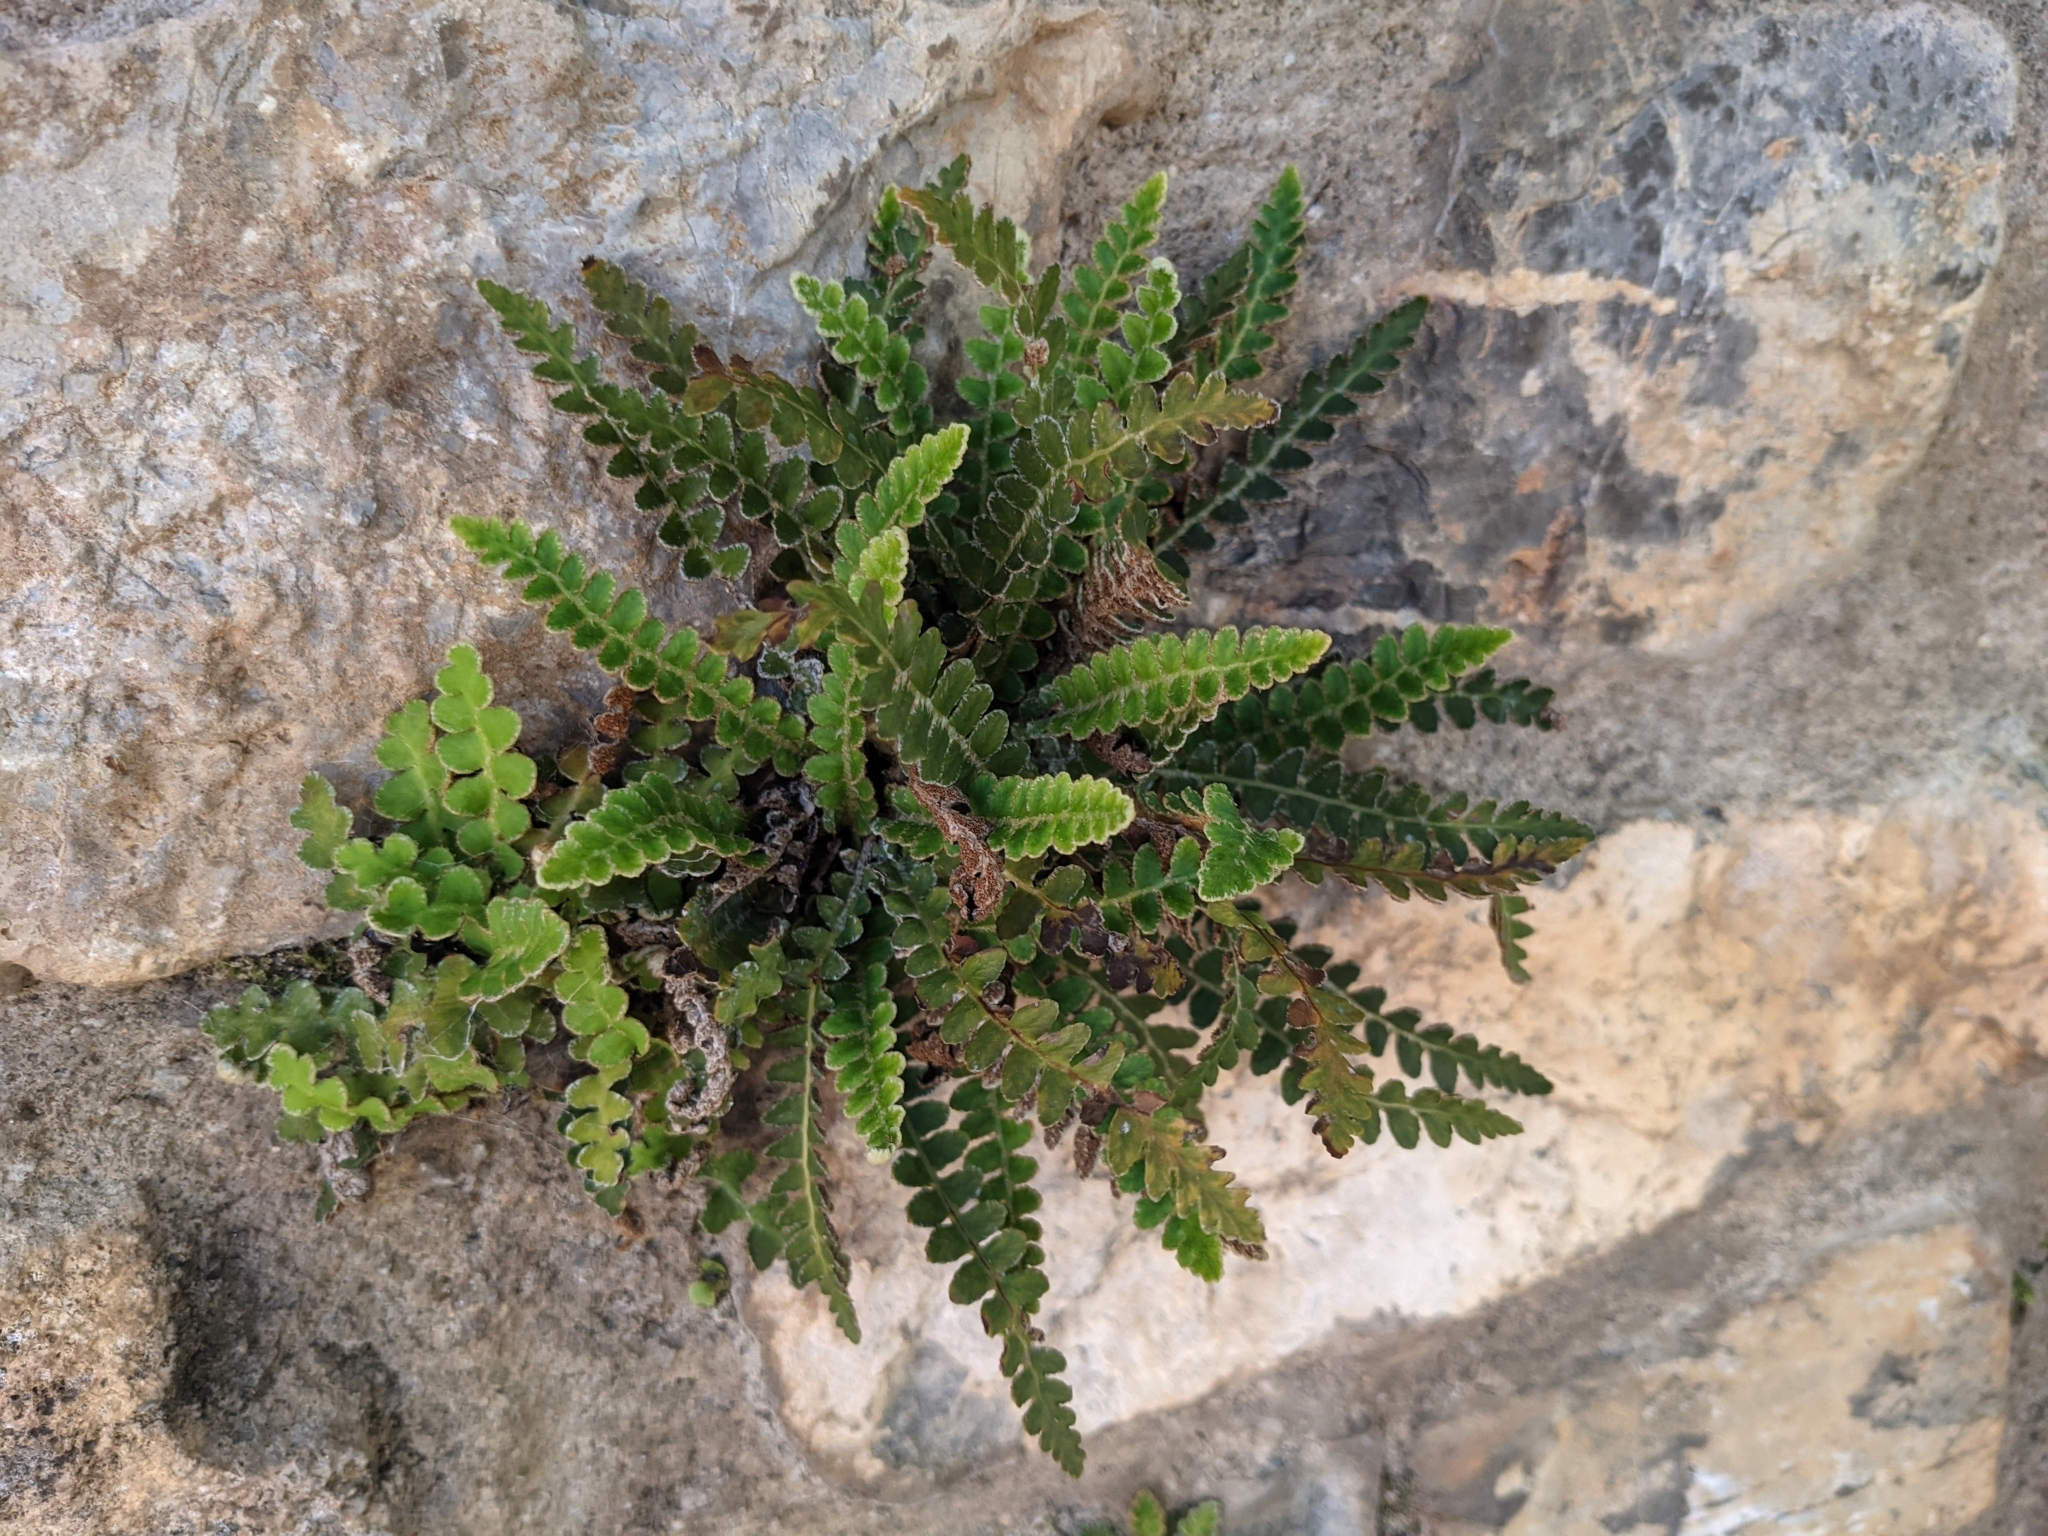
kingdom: Plantae
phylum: Tracheophyta
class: Polypodiopsida
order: Polypodiales
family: Aspleniaceae
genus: Asplenium
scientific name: Asplenium ceterach
